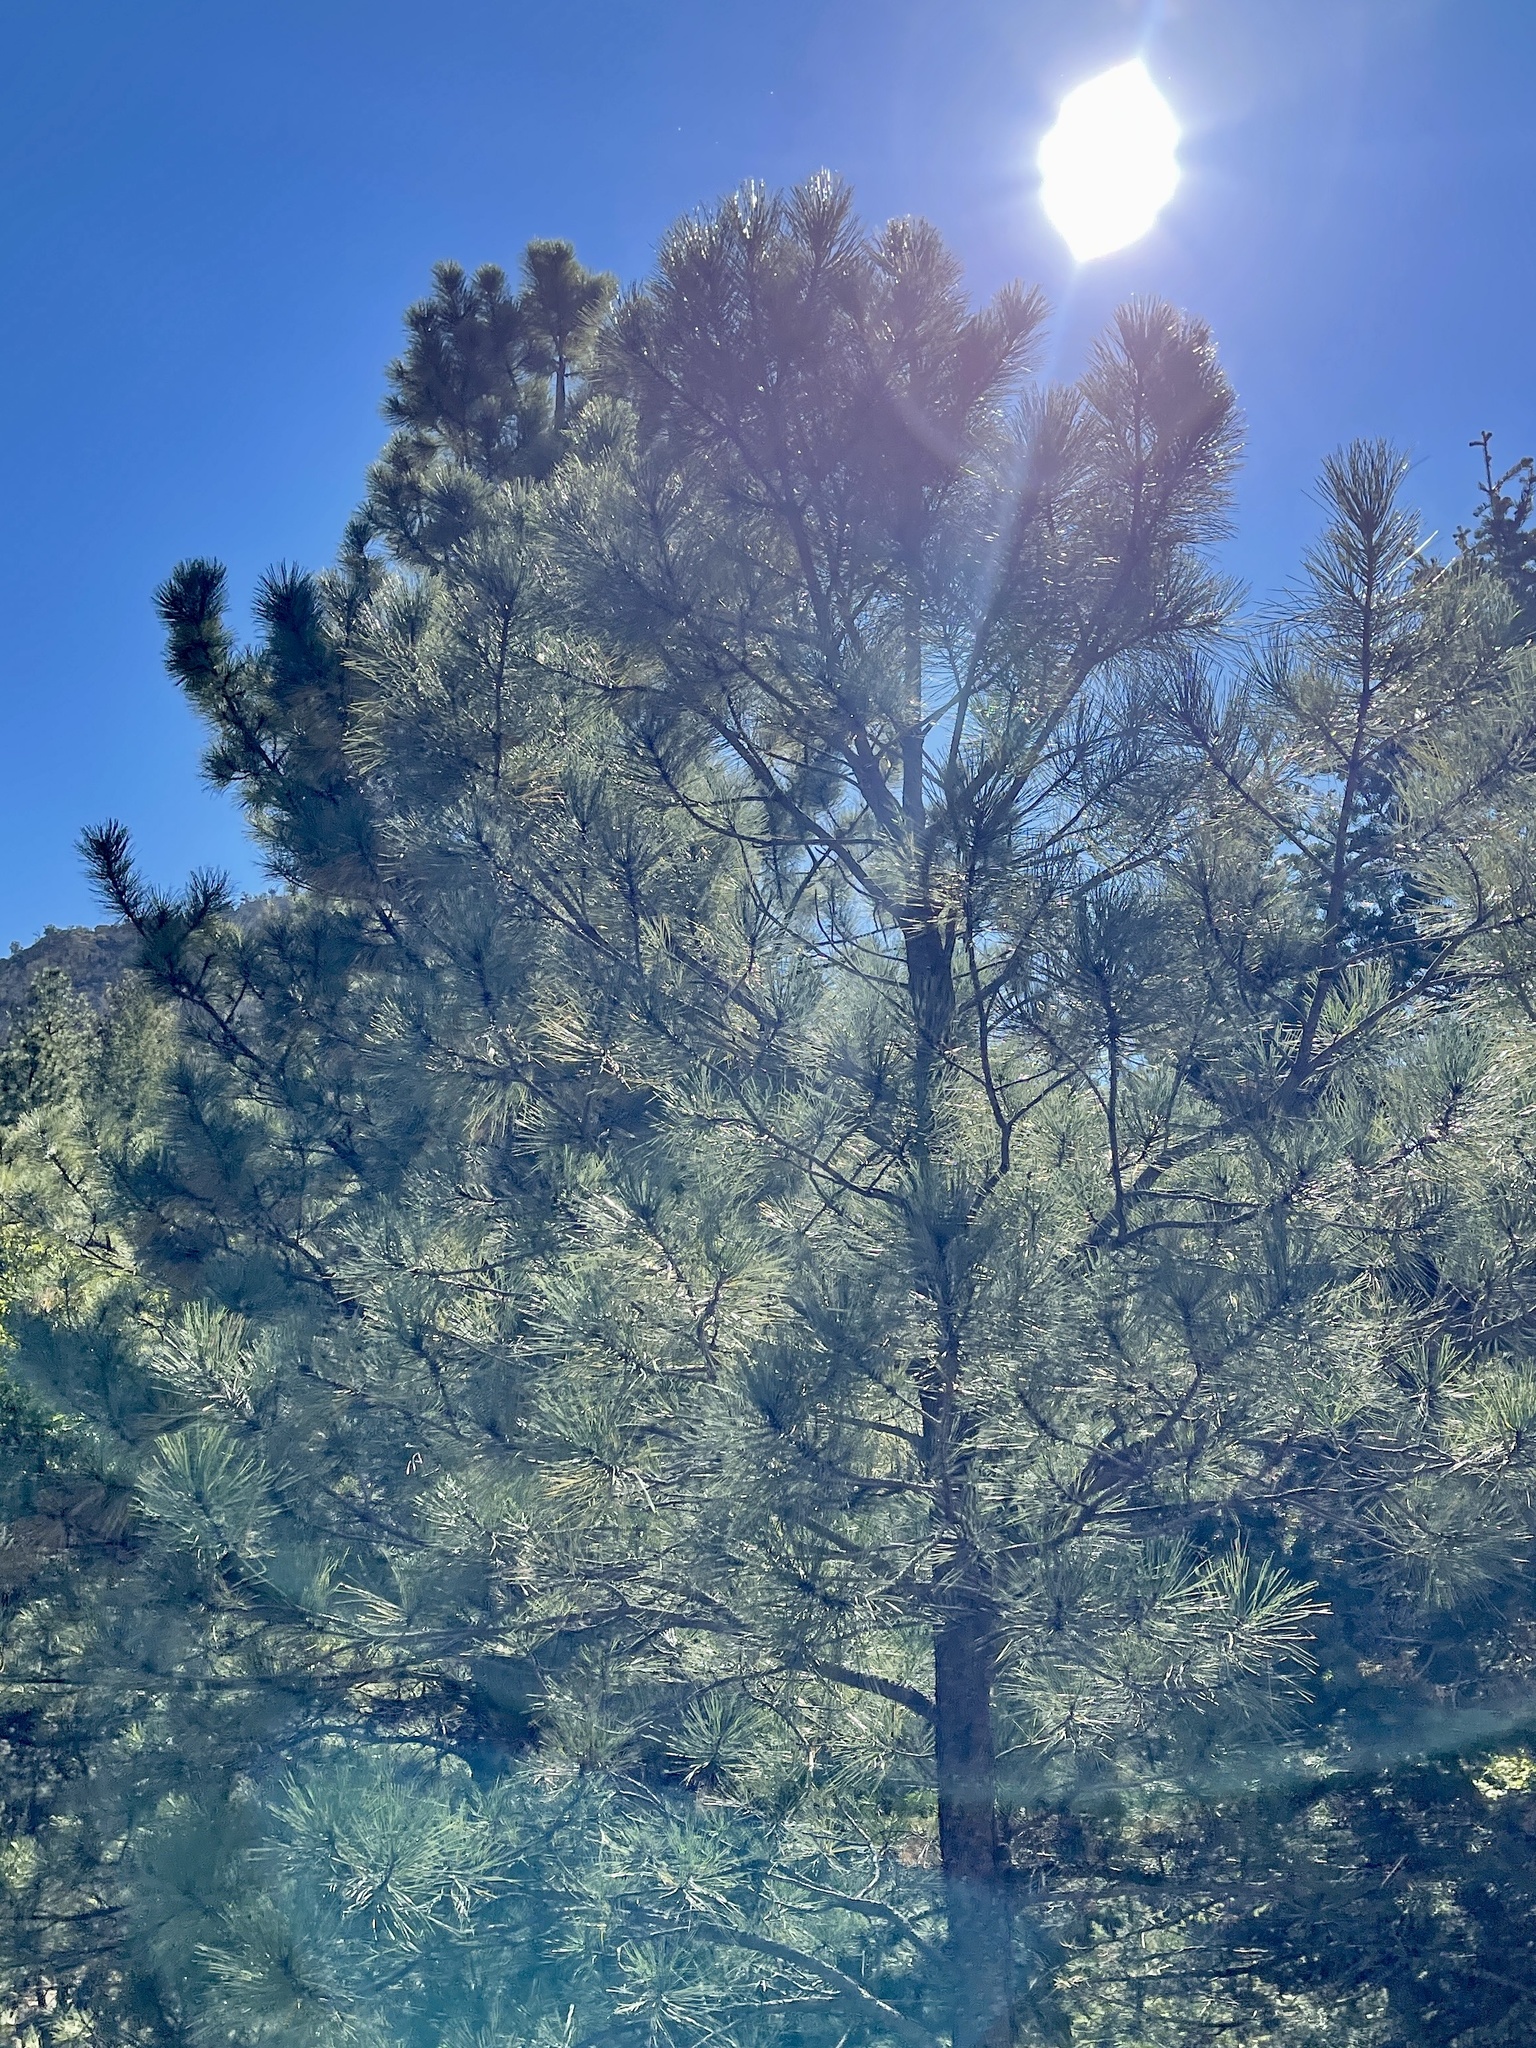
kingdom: Plantae
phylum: Tracheophyta
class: Pinopsida
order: Pinales
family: Pinaceae
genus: Pinus
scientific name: Pinus ponderosa
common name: Western yellow-pine
